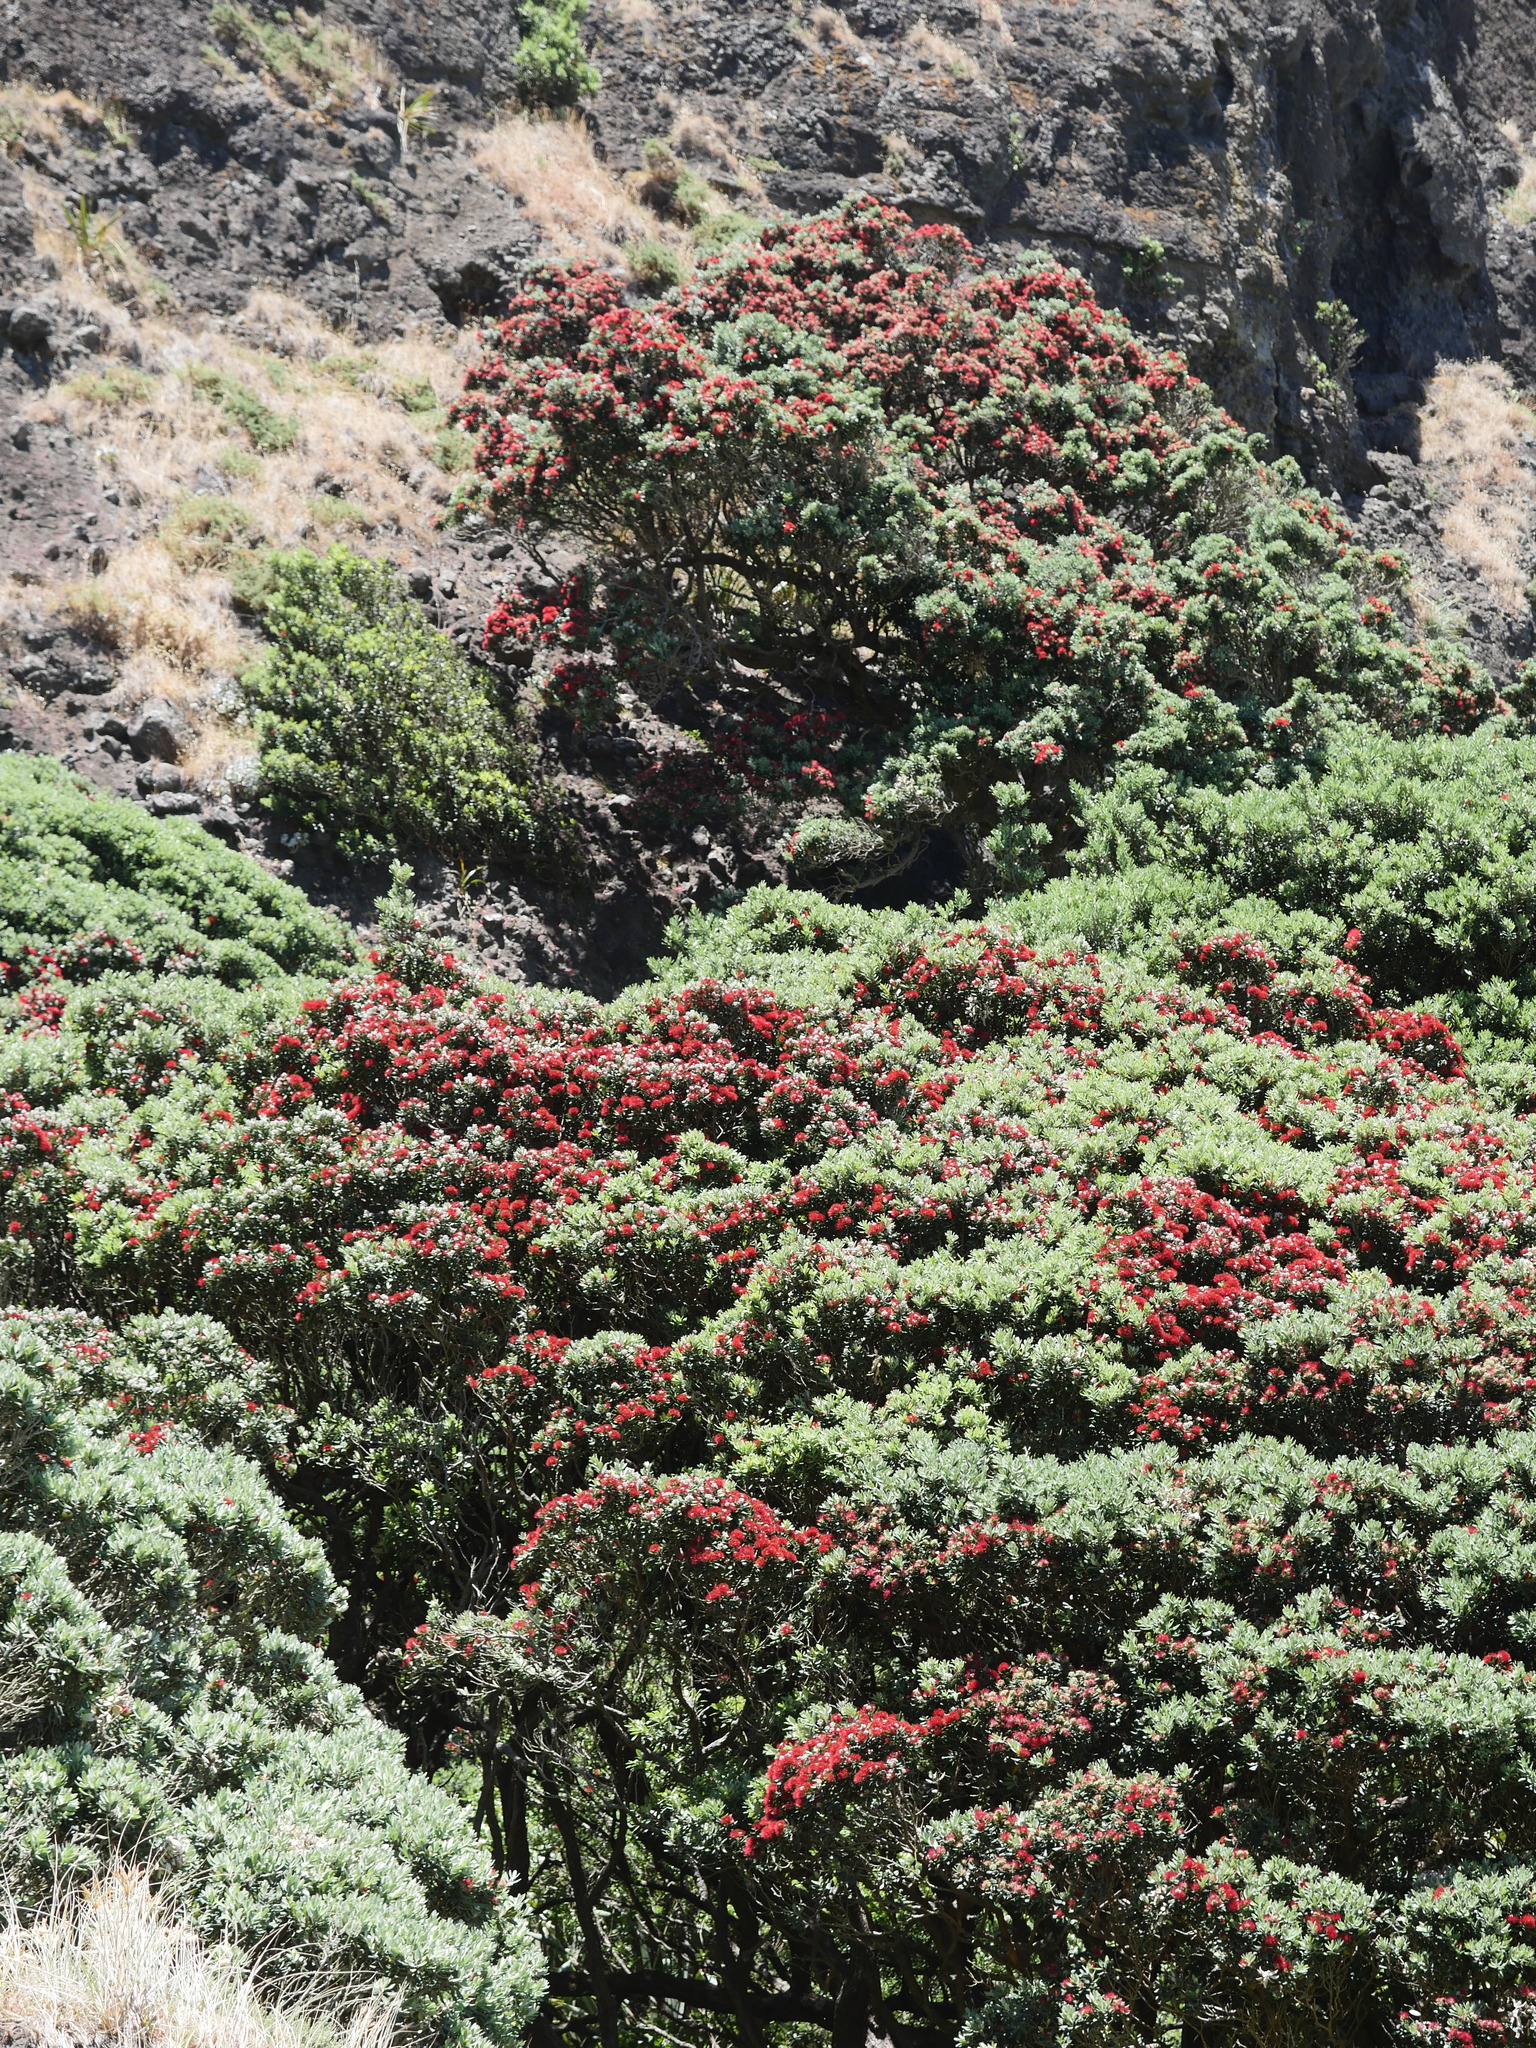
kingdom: Plantae
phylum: Tracheophyta
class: Magnoliopsida
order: Myrtales
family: Myrtaceae
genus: Metrosideros
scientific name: Metrosideros excelsa
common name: New zealand christmastree
